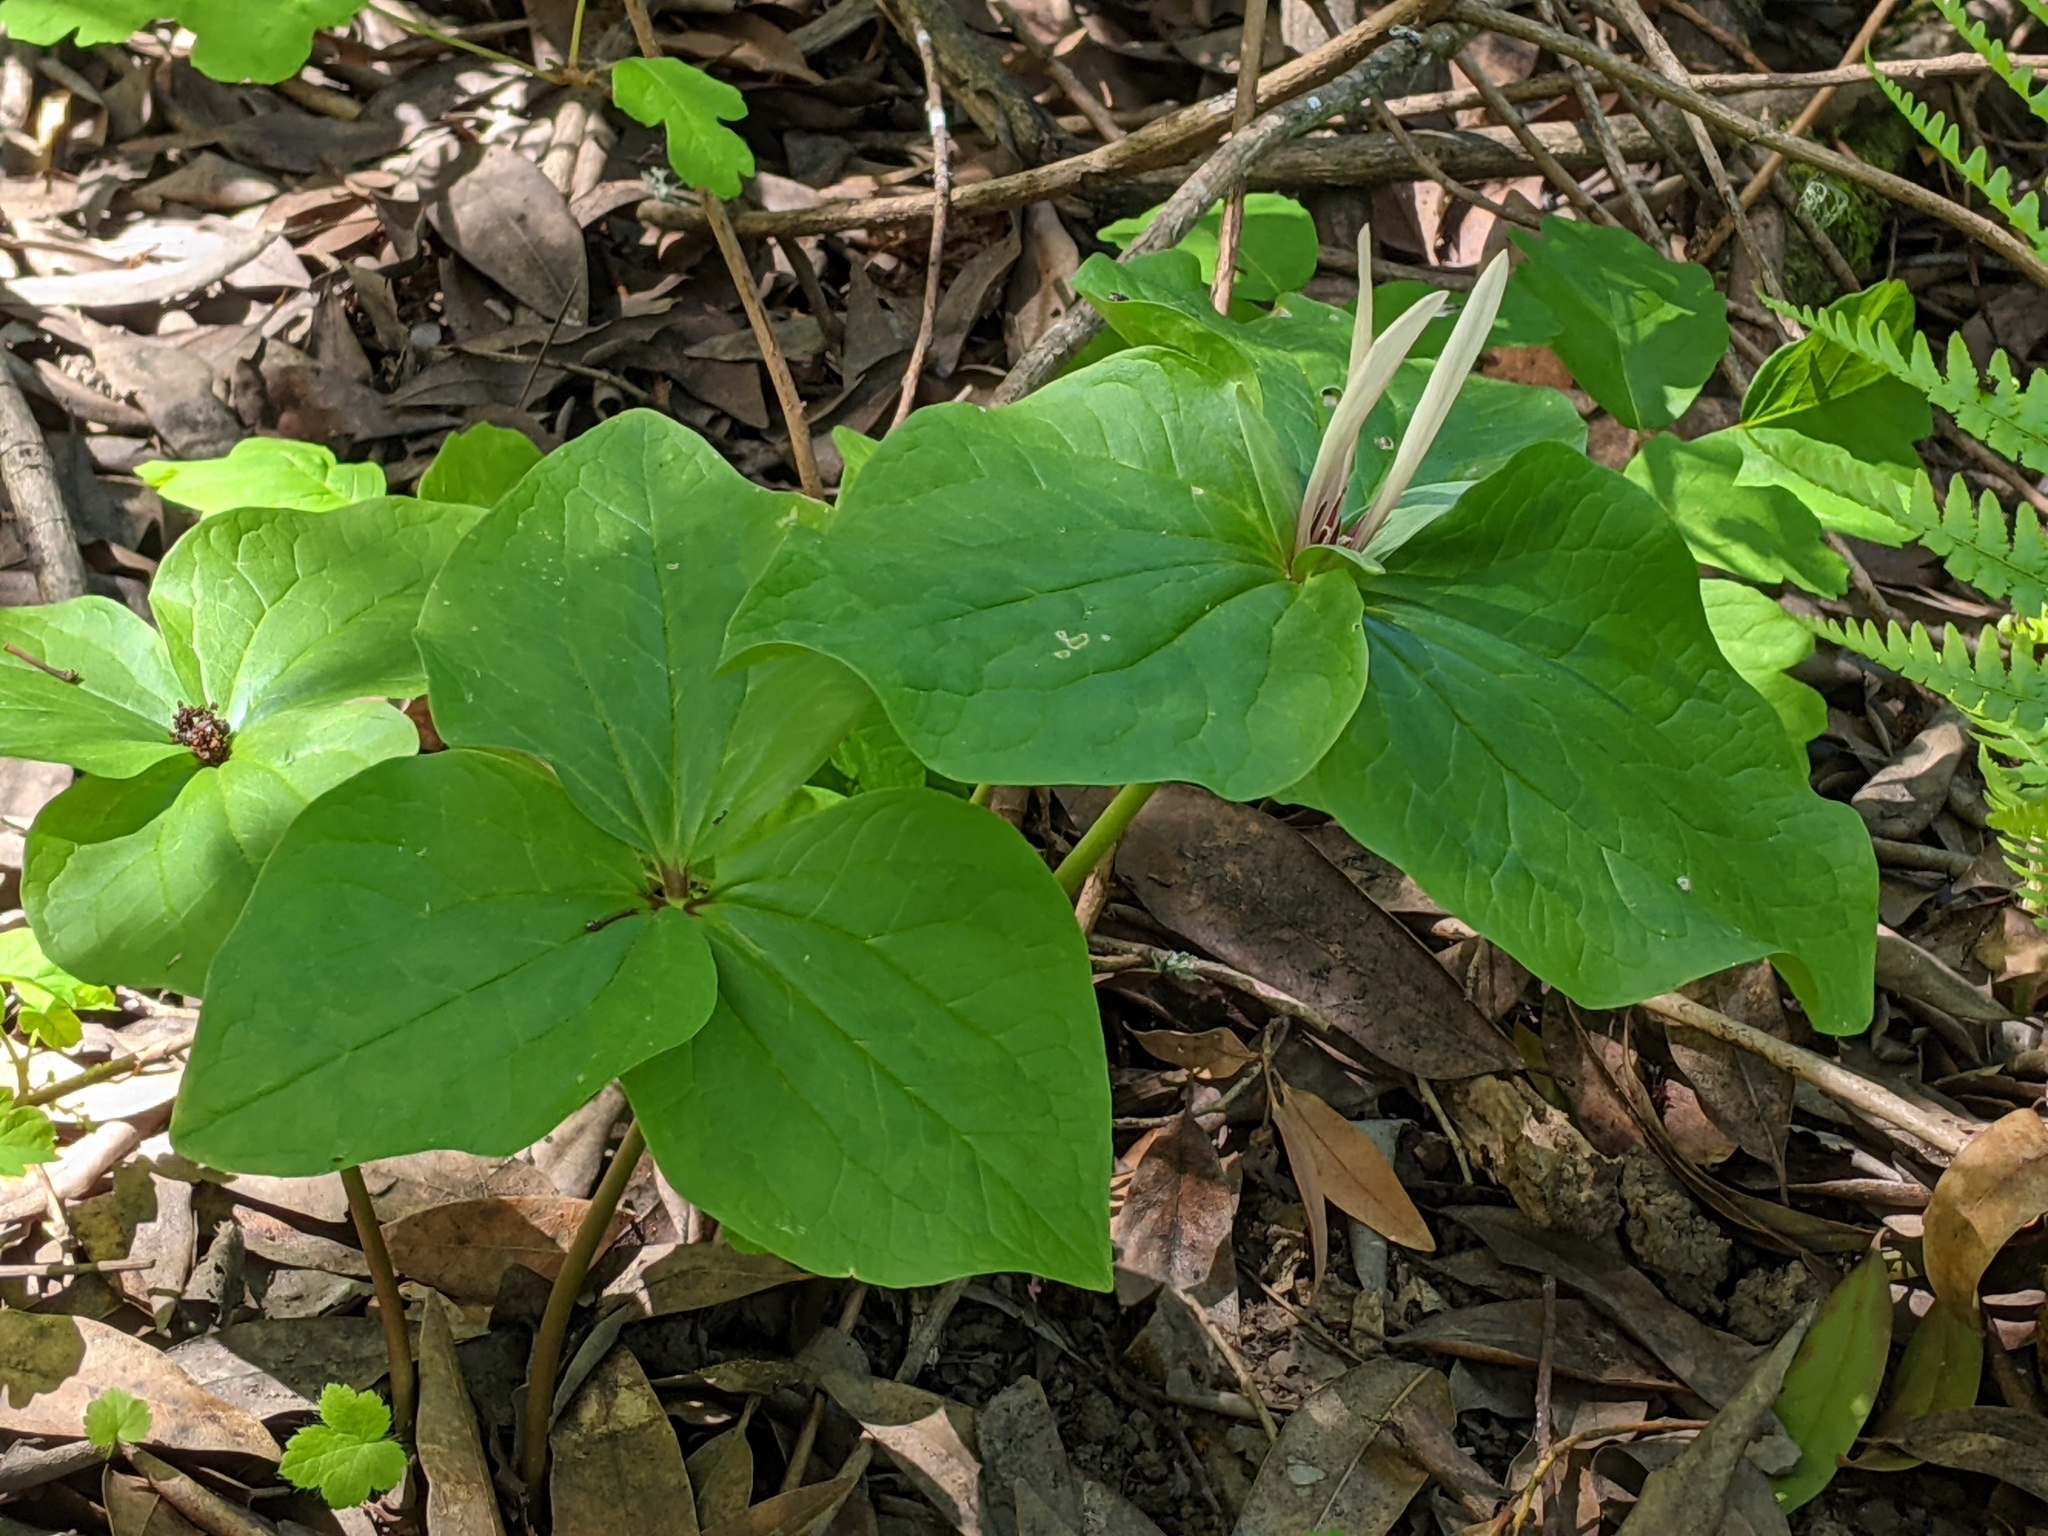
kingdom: Plantae
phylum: Tracheophyta
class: Liliopsida
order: Liliales
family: Melanthiaceae
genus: Trillium
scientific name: Trillium chloropetalum
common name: Giant trillium
